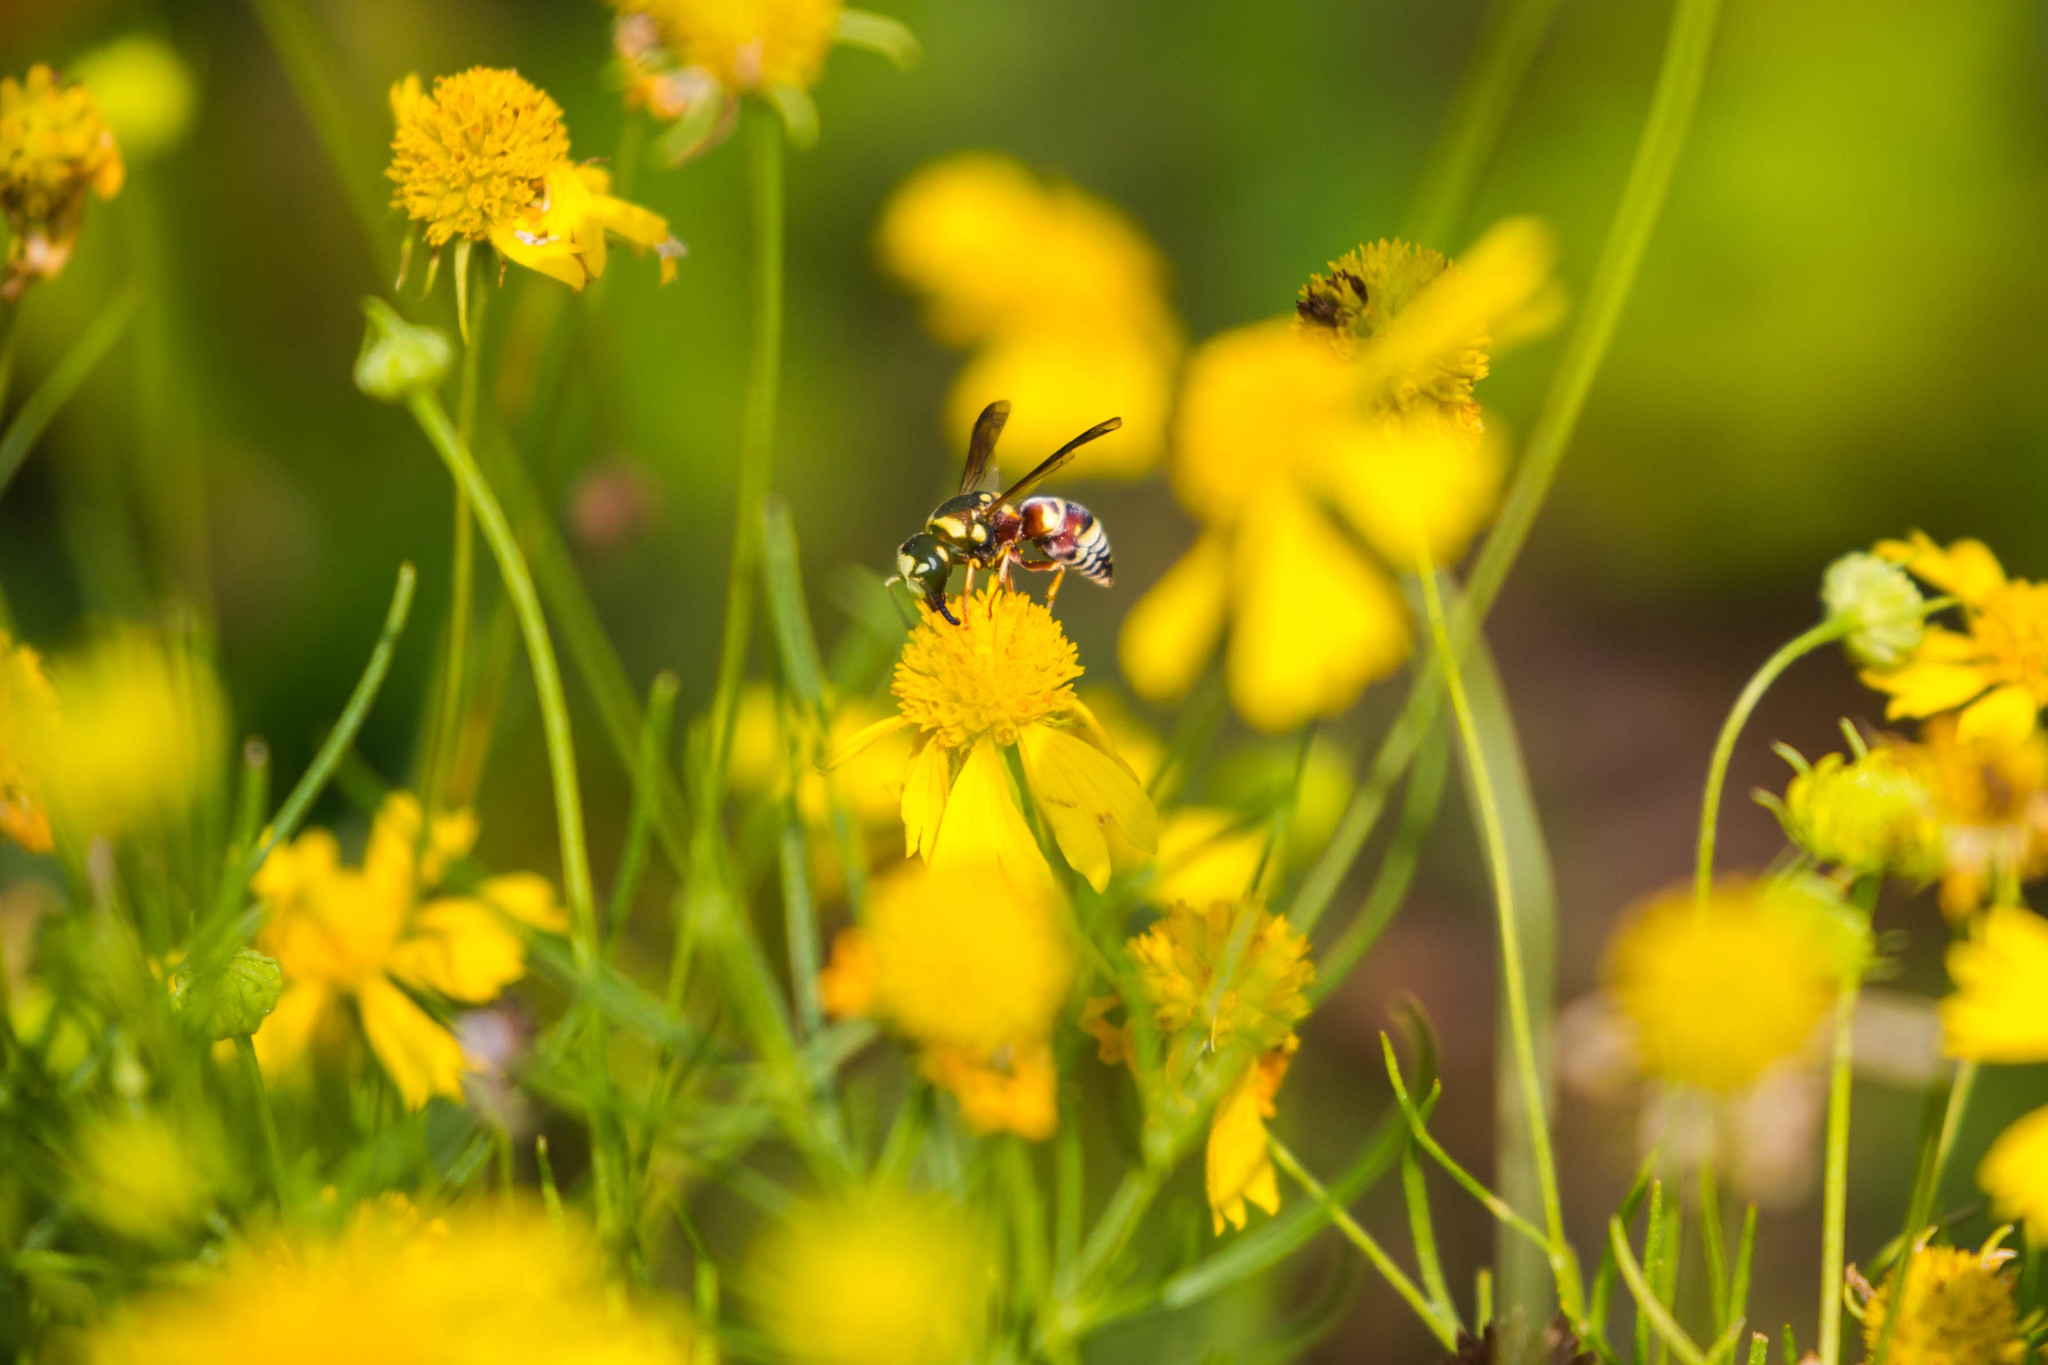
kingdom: Animalia
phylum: Arthropoda
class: Insecta
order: Hymenoptera
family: Eumenidae
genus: Euodynerus
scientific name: Euodynerus annulatus
